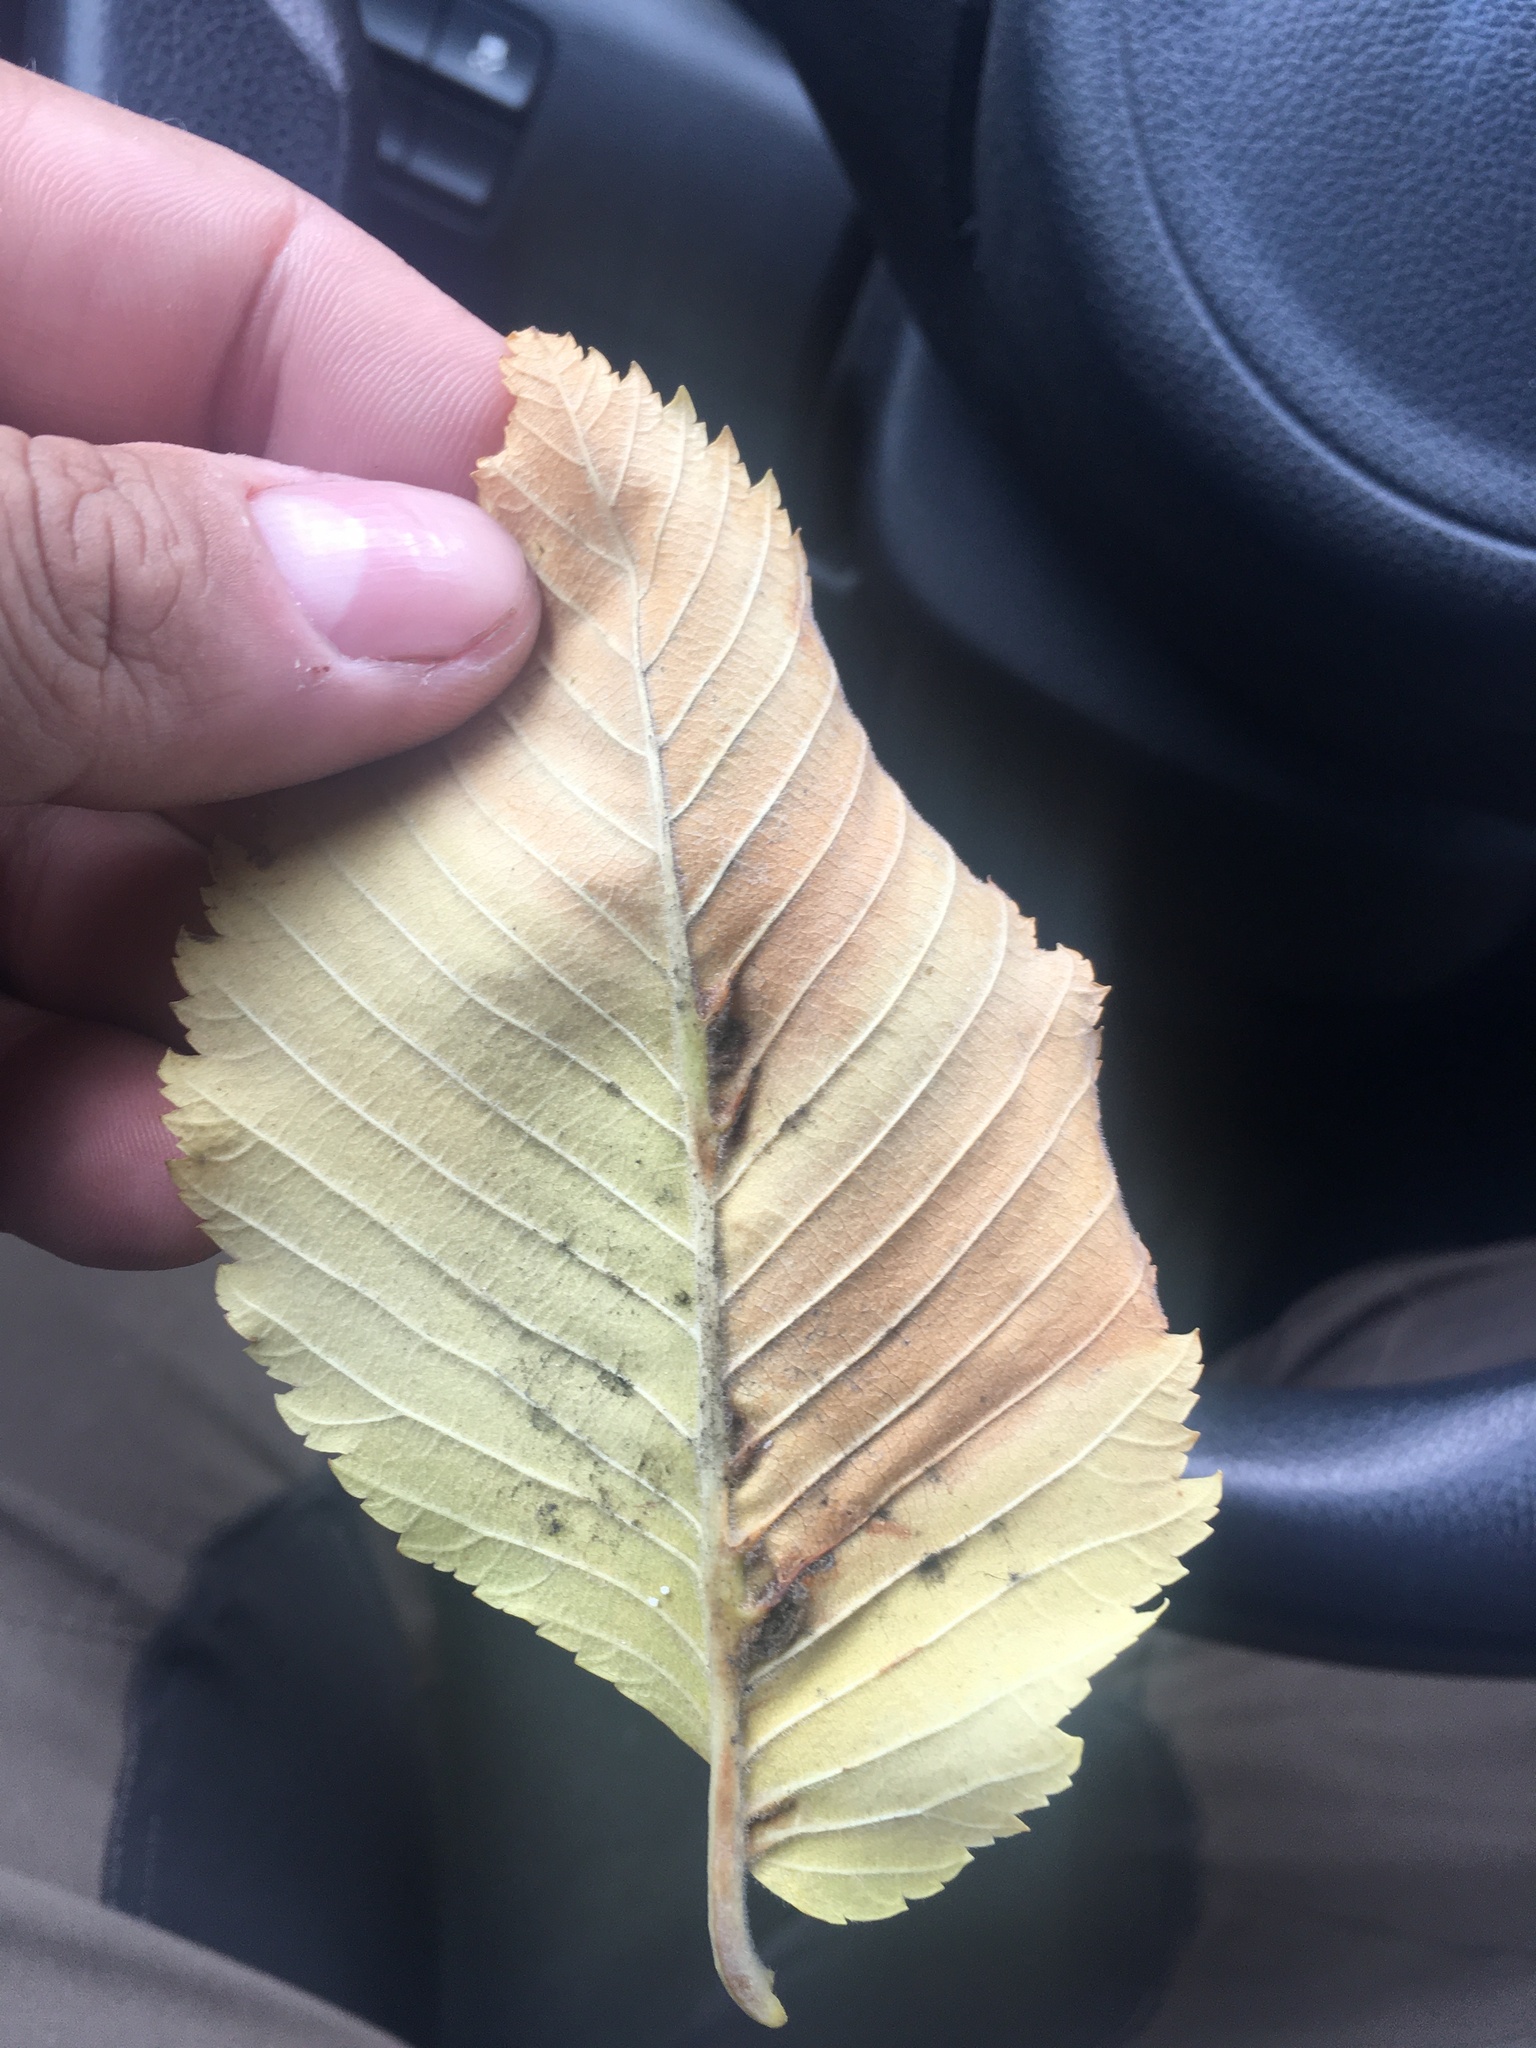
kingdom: Plantae
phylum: Tracheophyta
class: Magnoliopsida
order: Rosales
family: Ulmaceae
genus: Ulmus
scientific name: Ulmus laevis
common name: European white-elm
